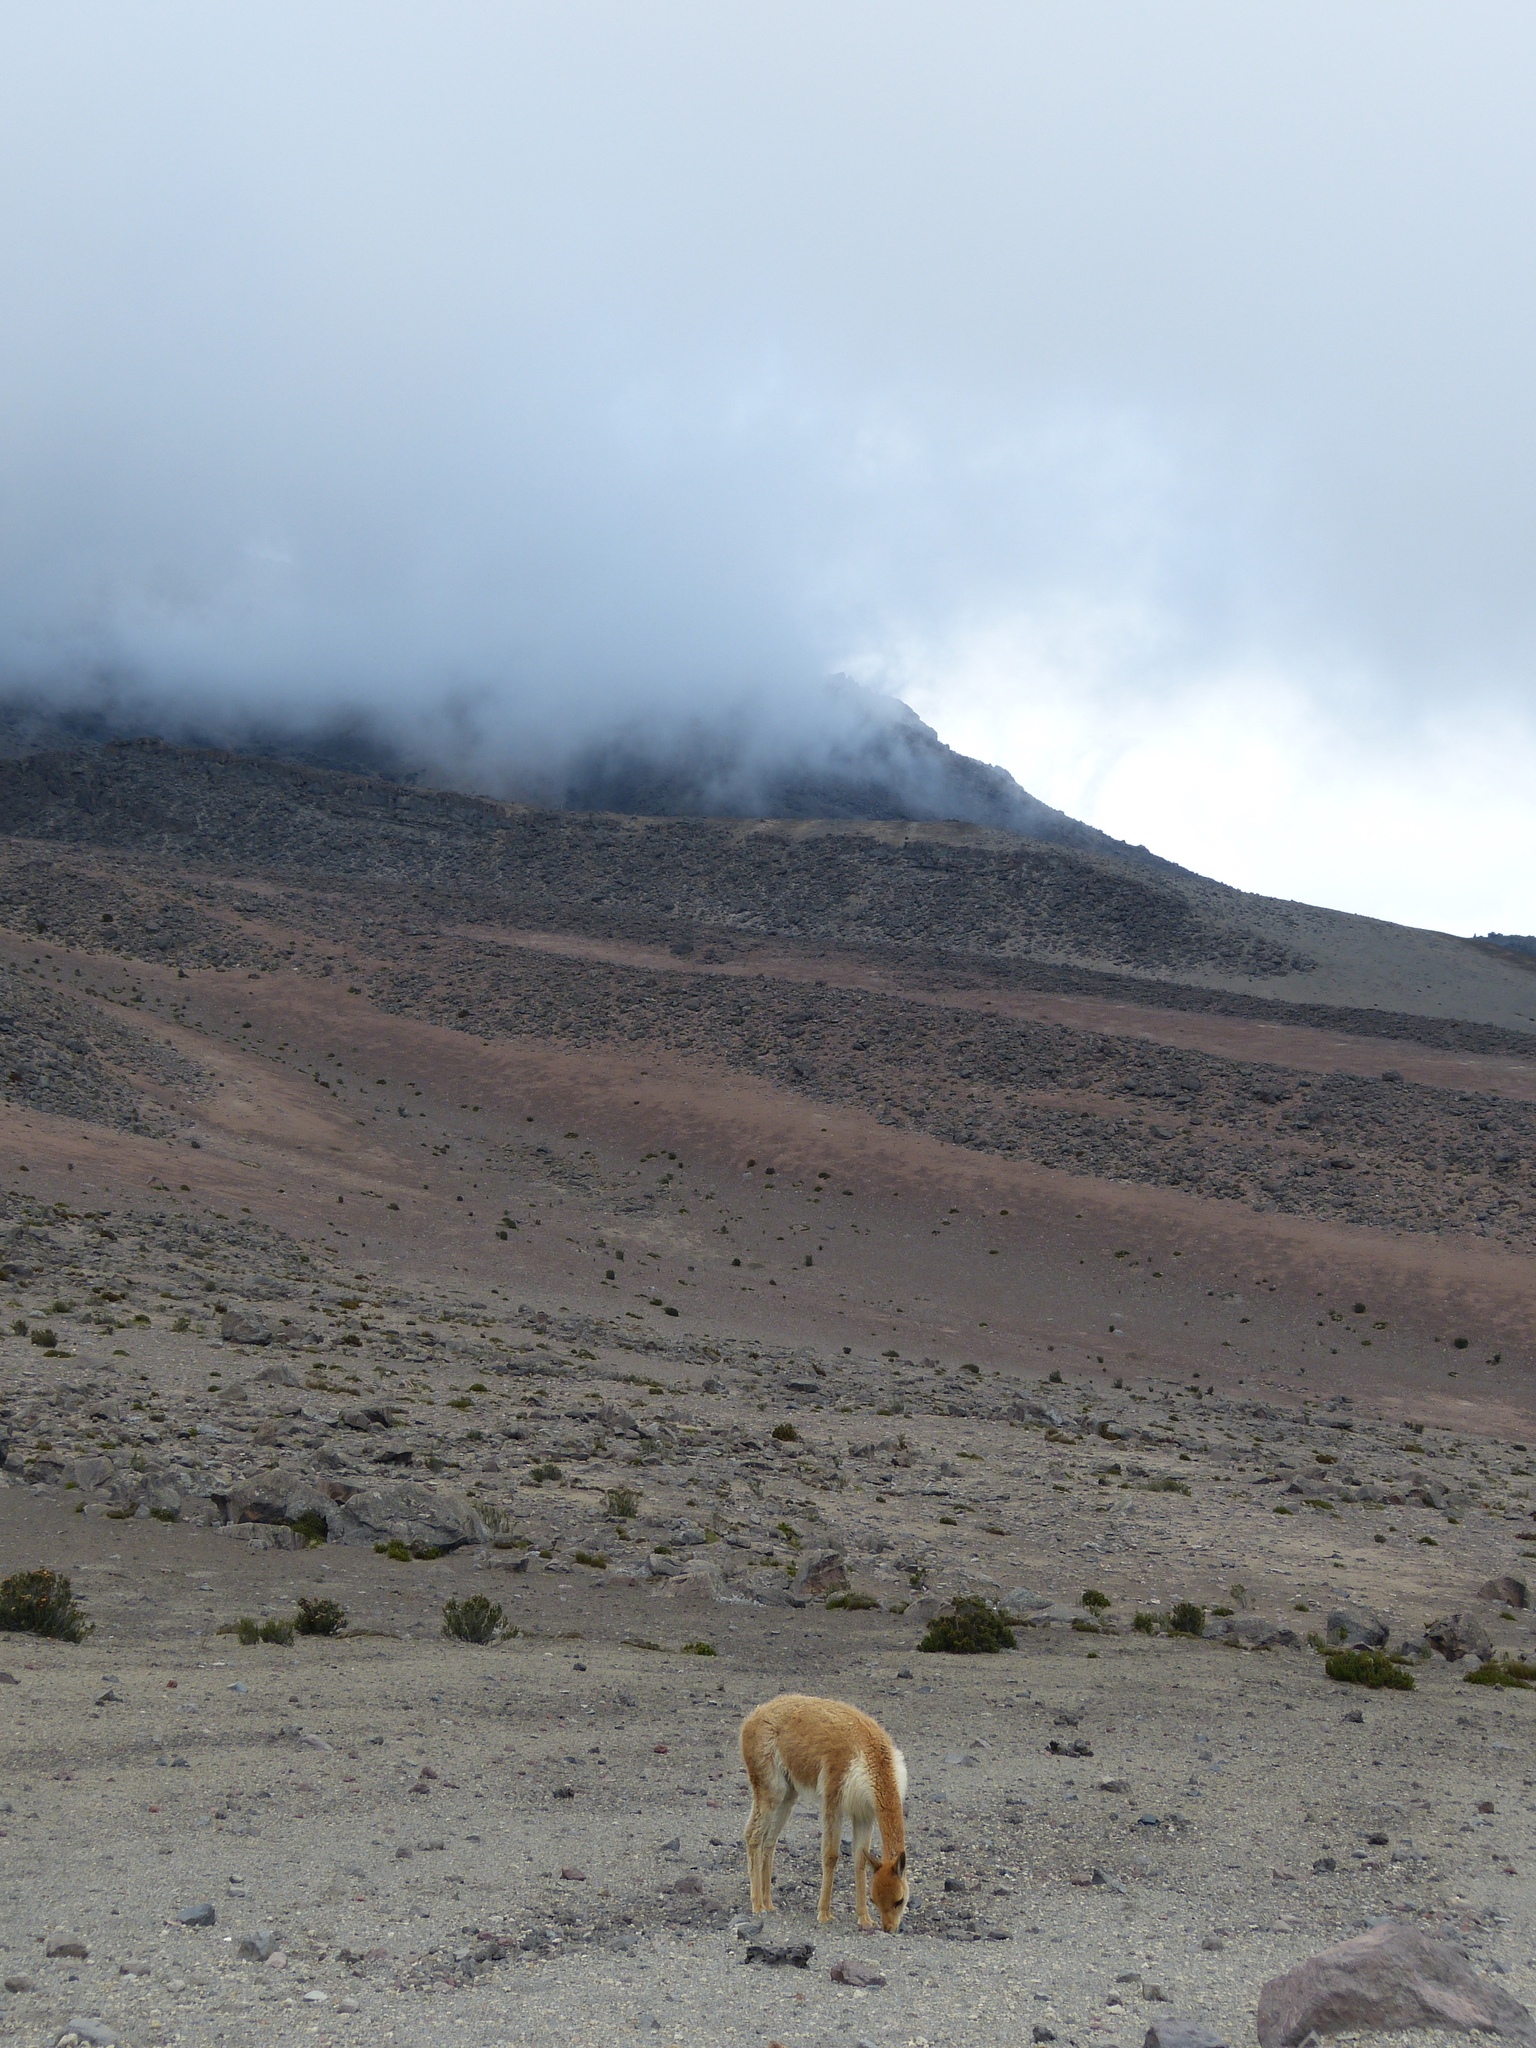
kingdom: Animalia
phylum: Chordata
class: Mammalia
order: Artiodactyla
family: Camelidae
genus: Vicugna
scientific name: Vicugna vicugna
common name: Vicugna
